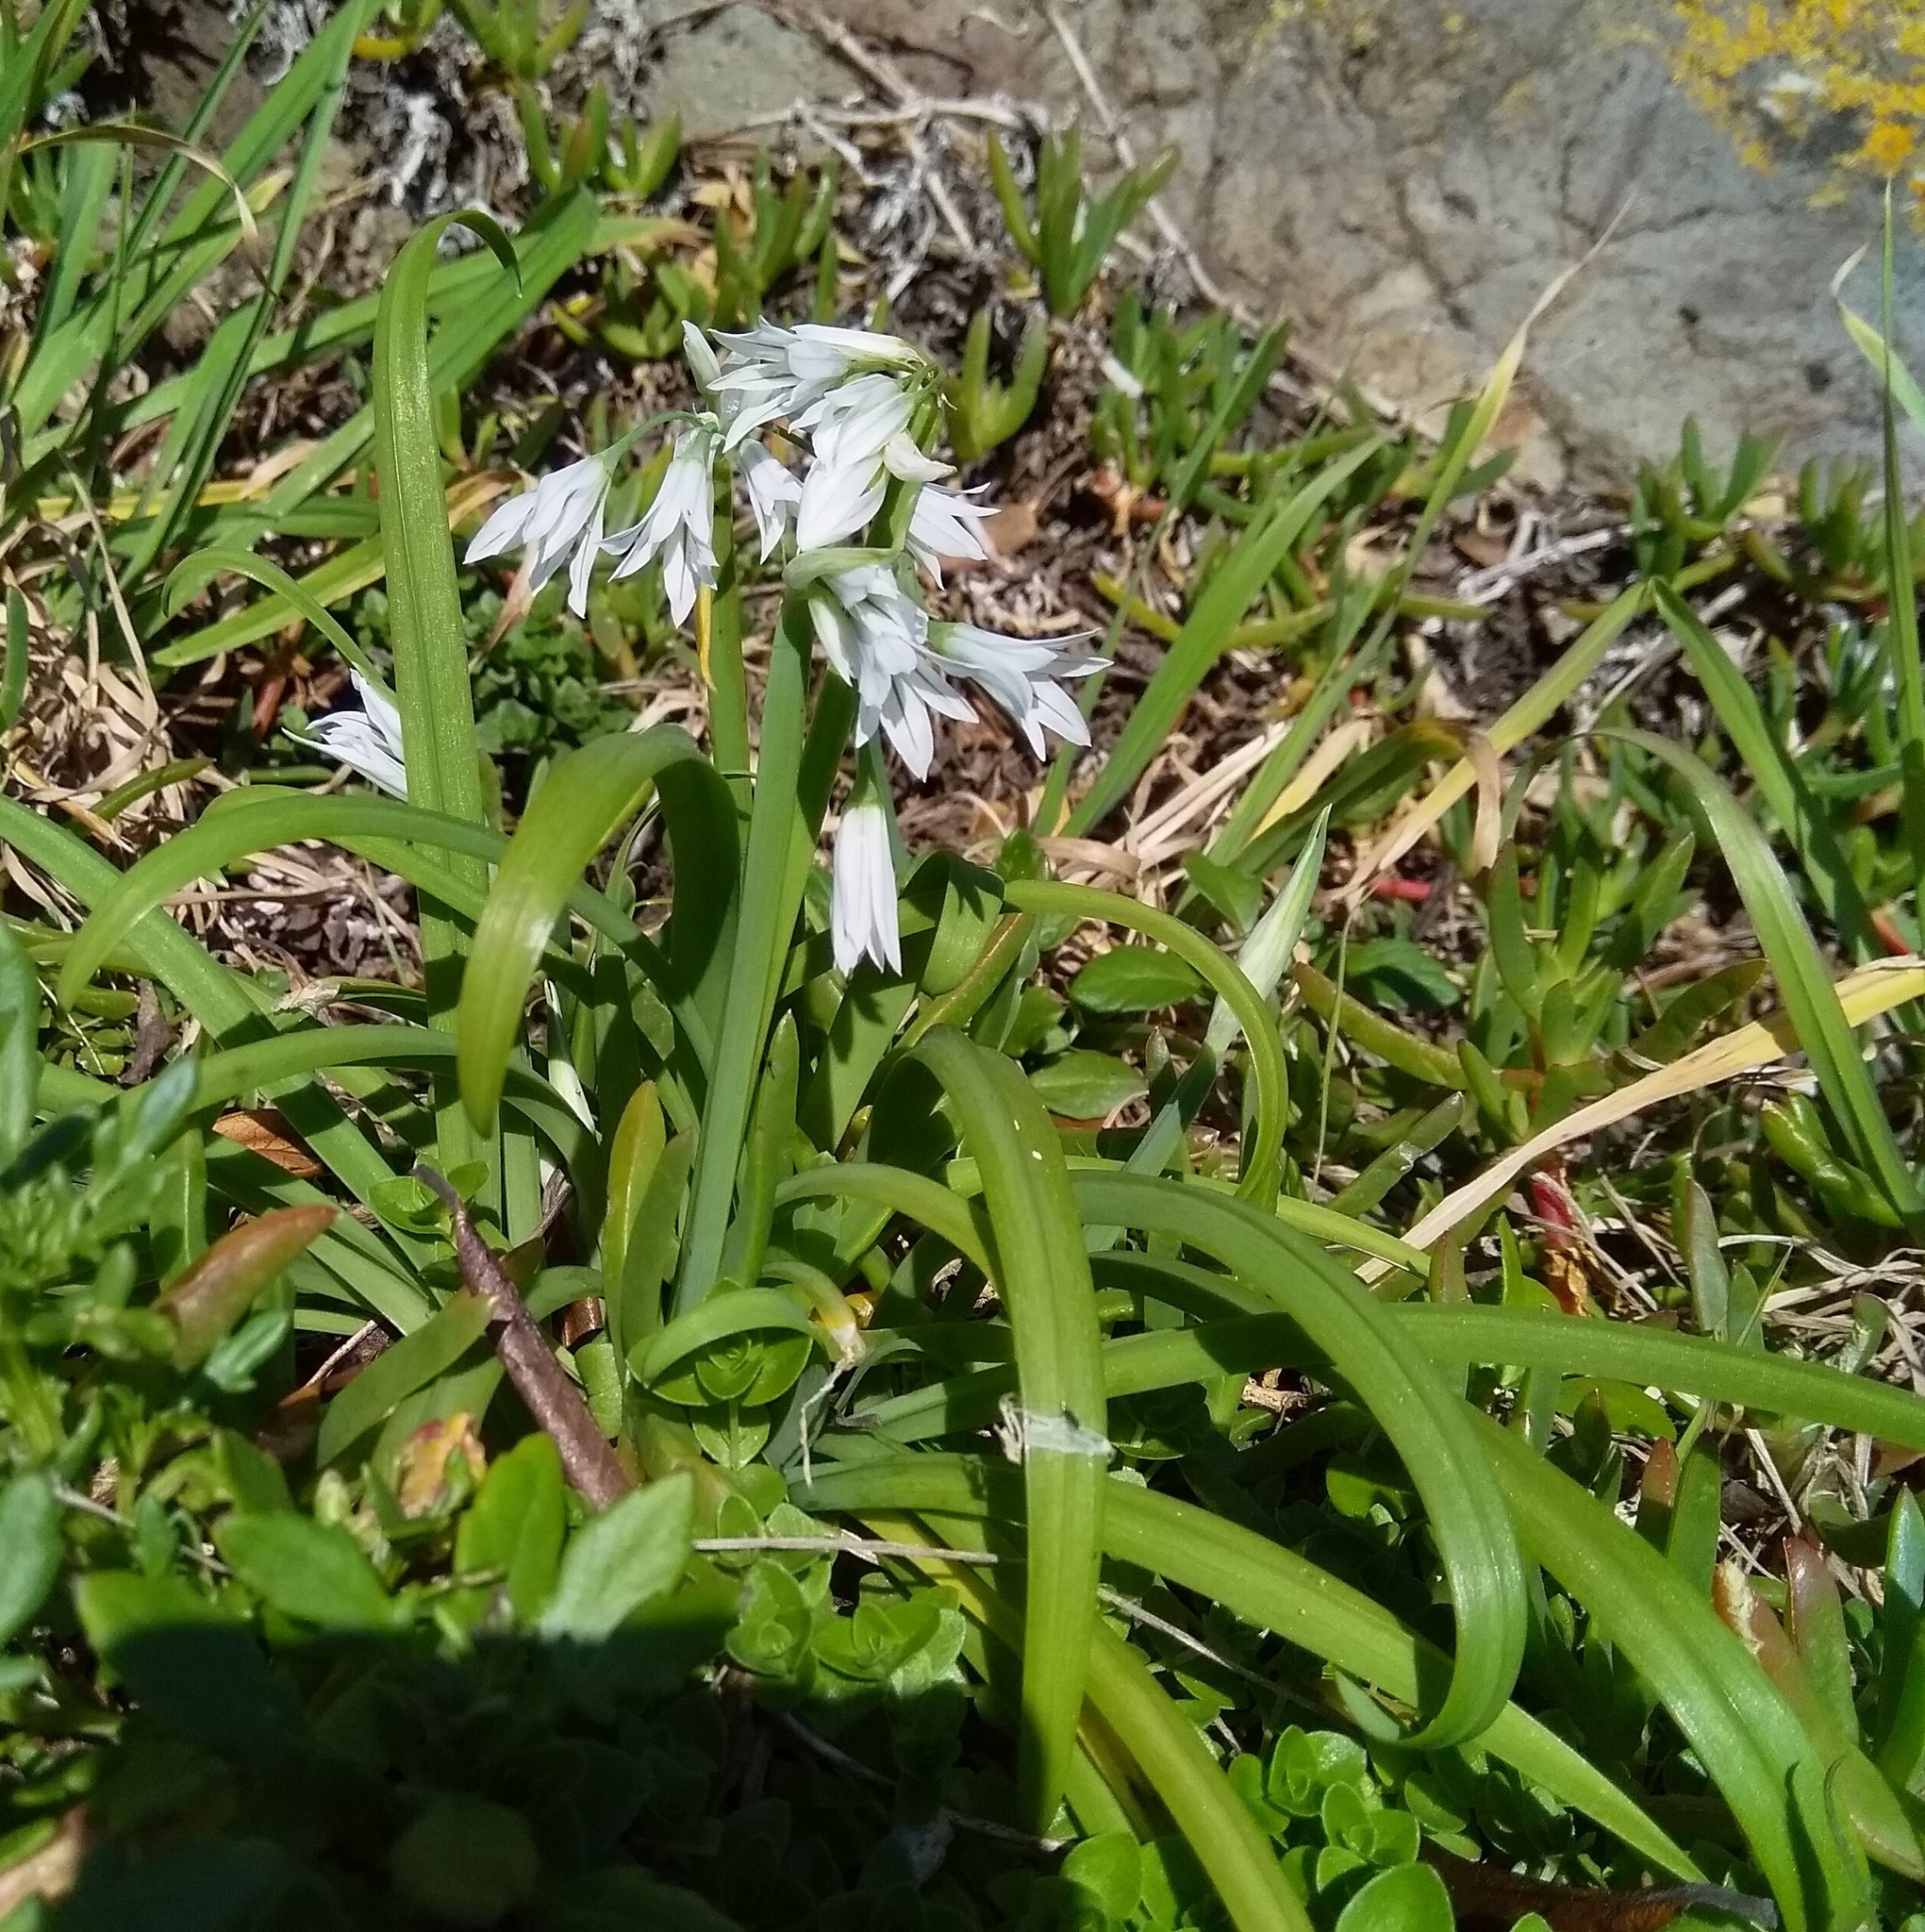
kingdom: Plantae
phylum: Tracheophyta
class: Liliopsida
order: Asparagales
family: Amaryllidaceae
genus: Allium
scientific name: Allium triquetrum
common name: Three-cornered garlic
